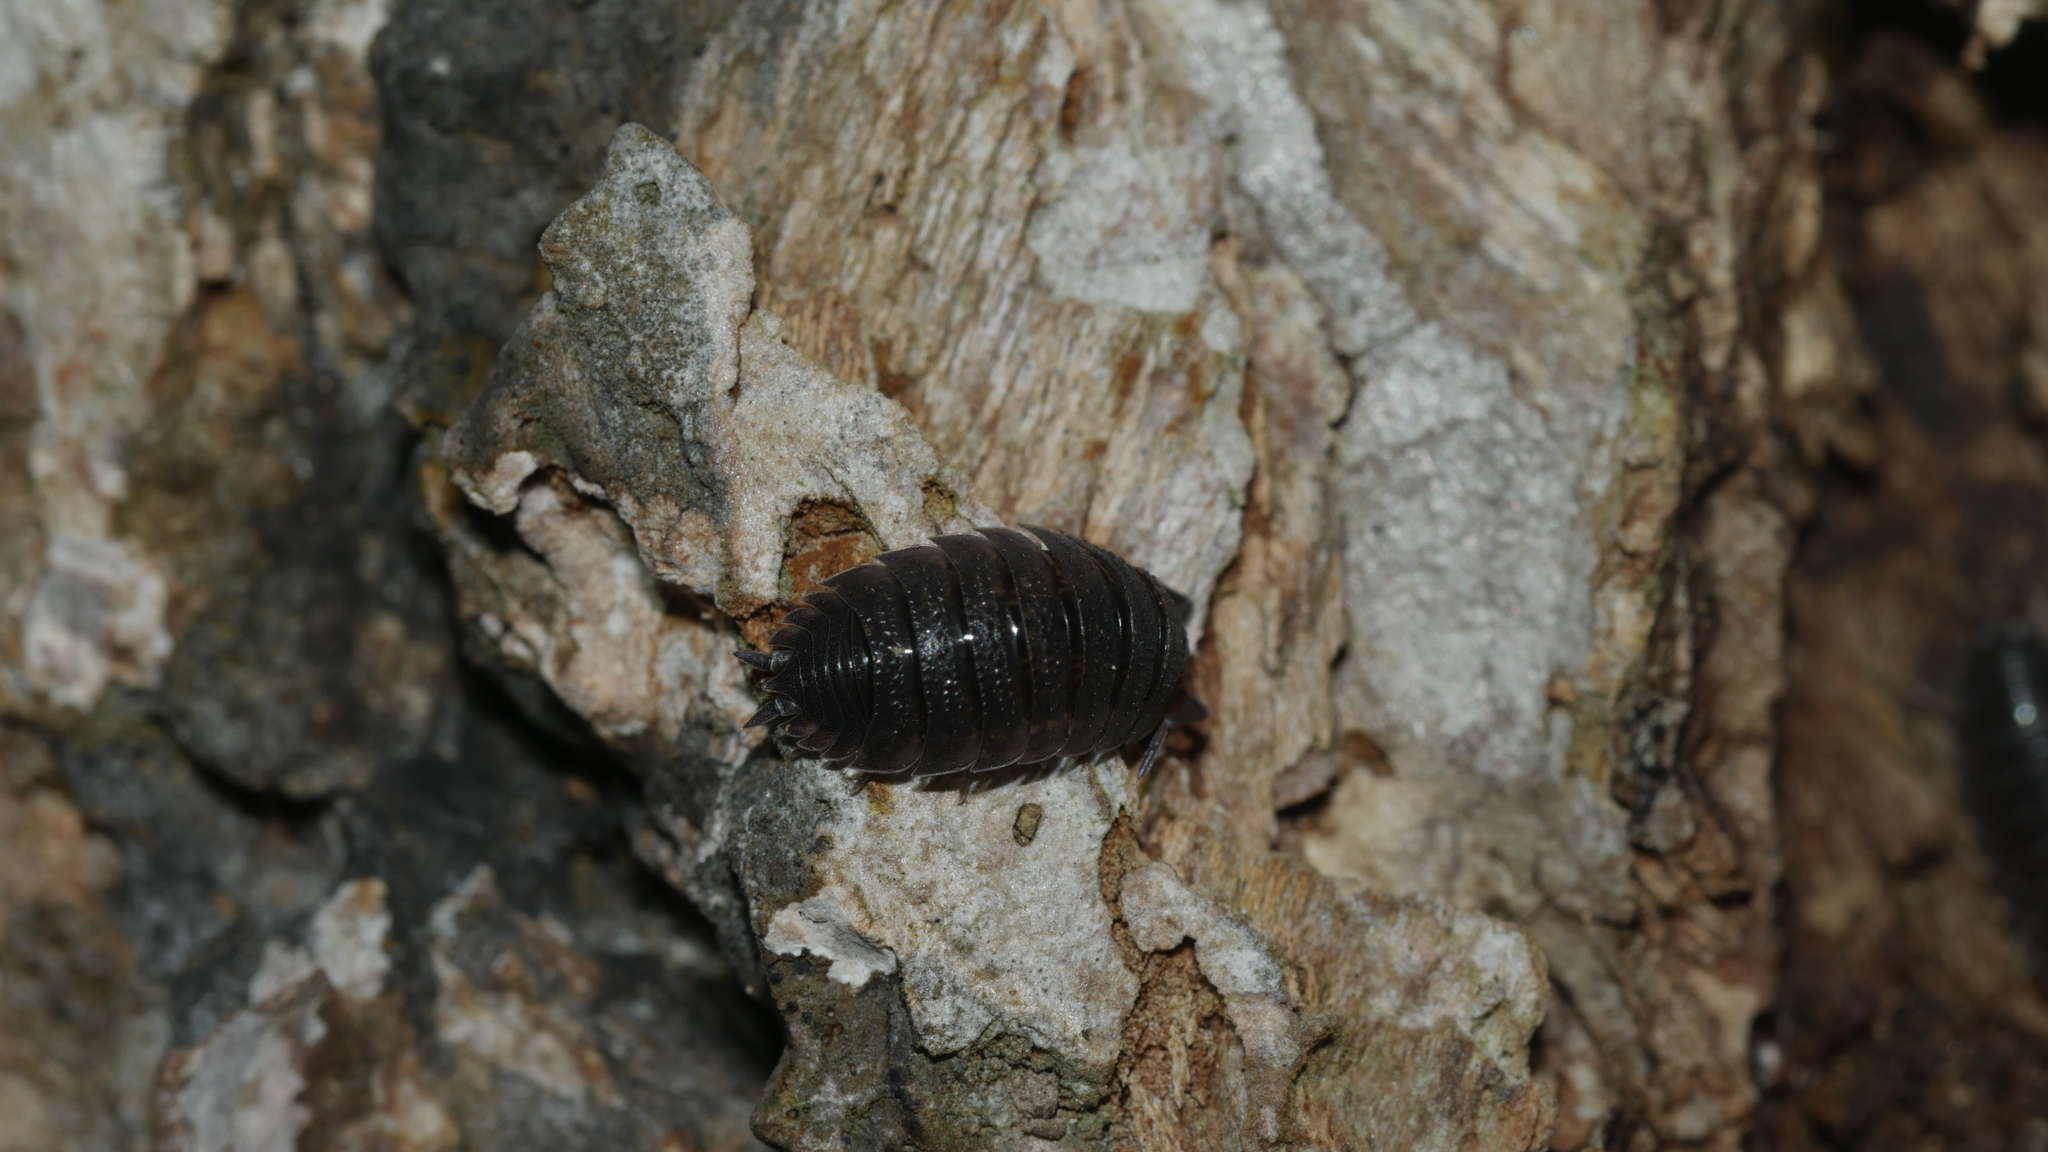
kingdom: Animalia
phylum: Arthropoda
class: Malacostraca
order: Isopoda
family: Porcellionidae
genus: Porcellio
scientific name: Porcellio scaber
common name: Common rough woodlouse
